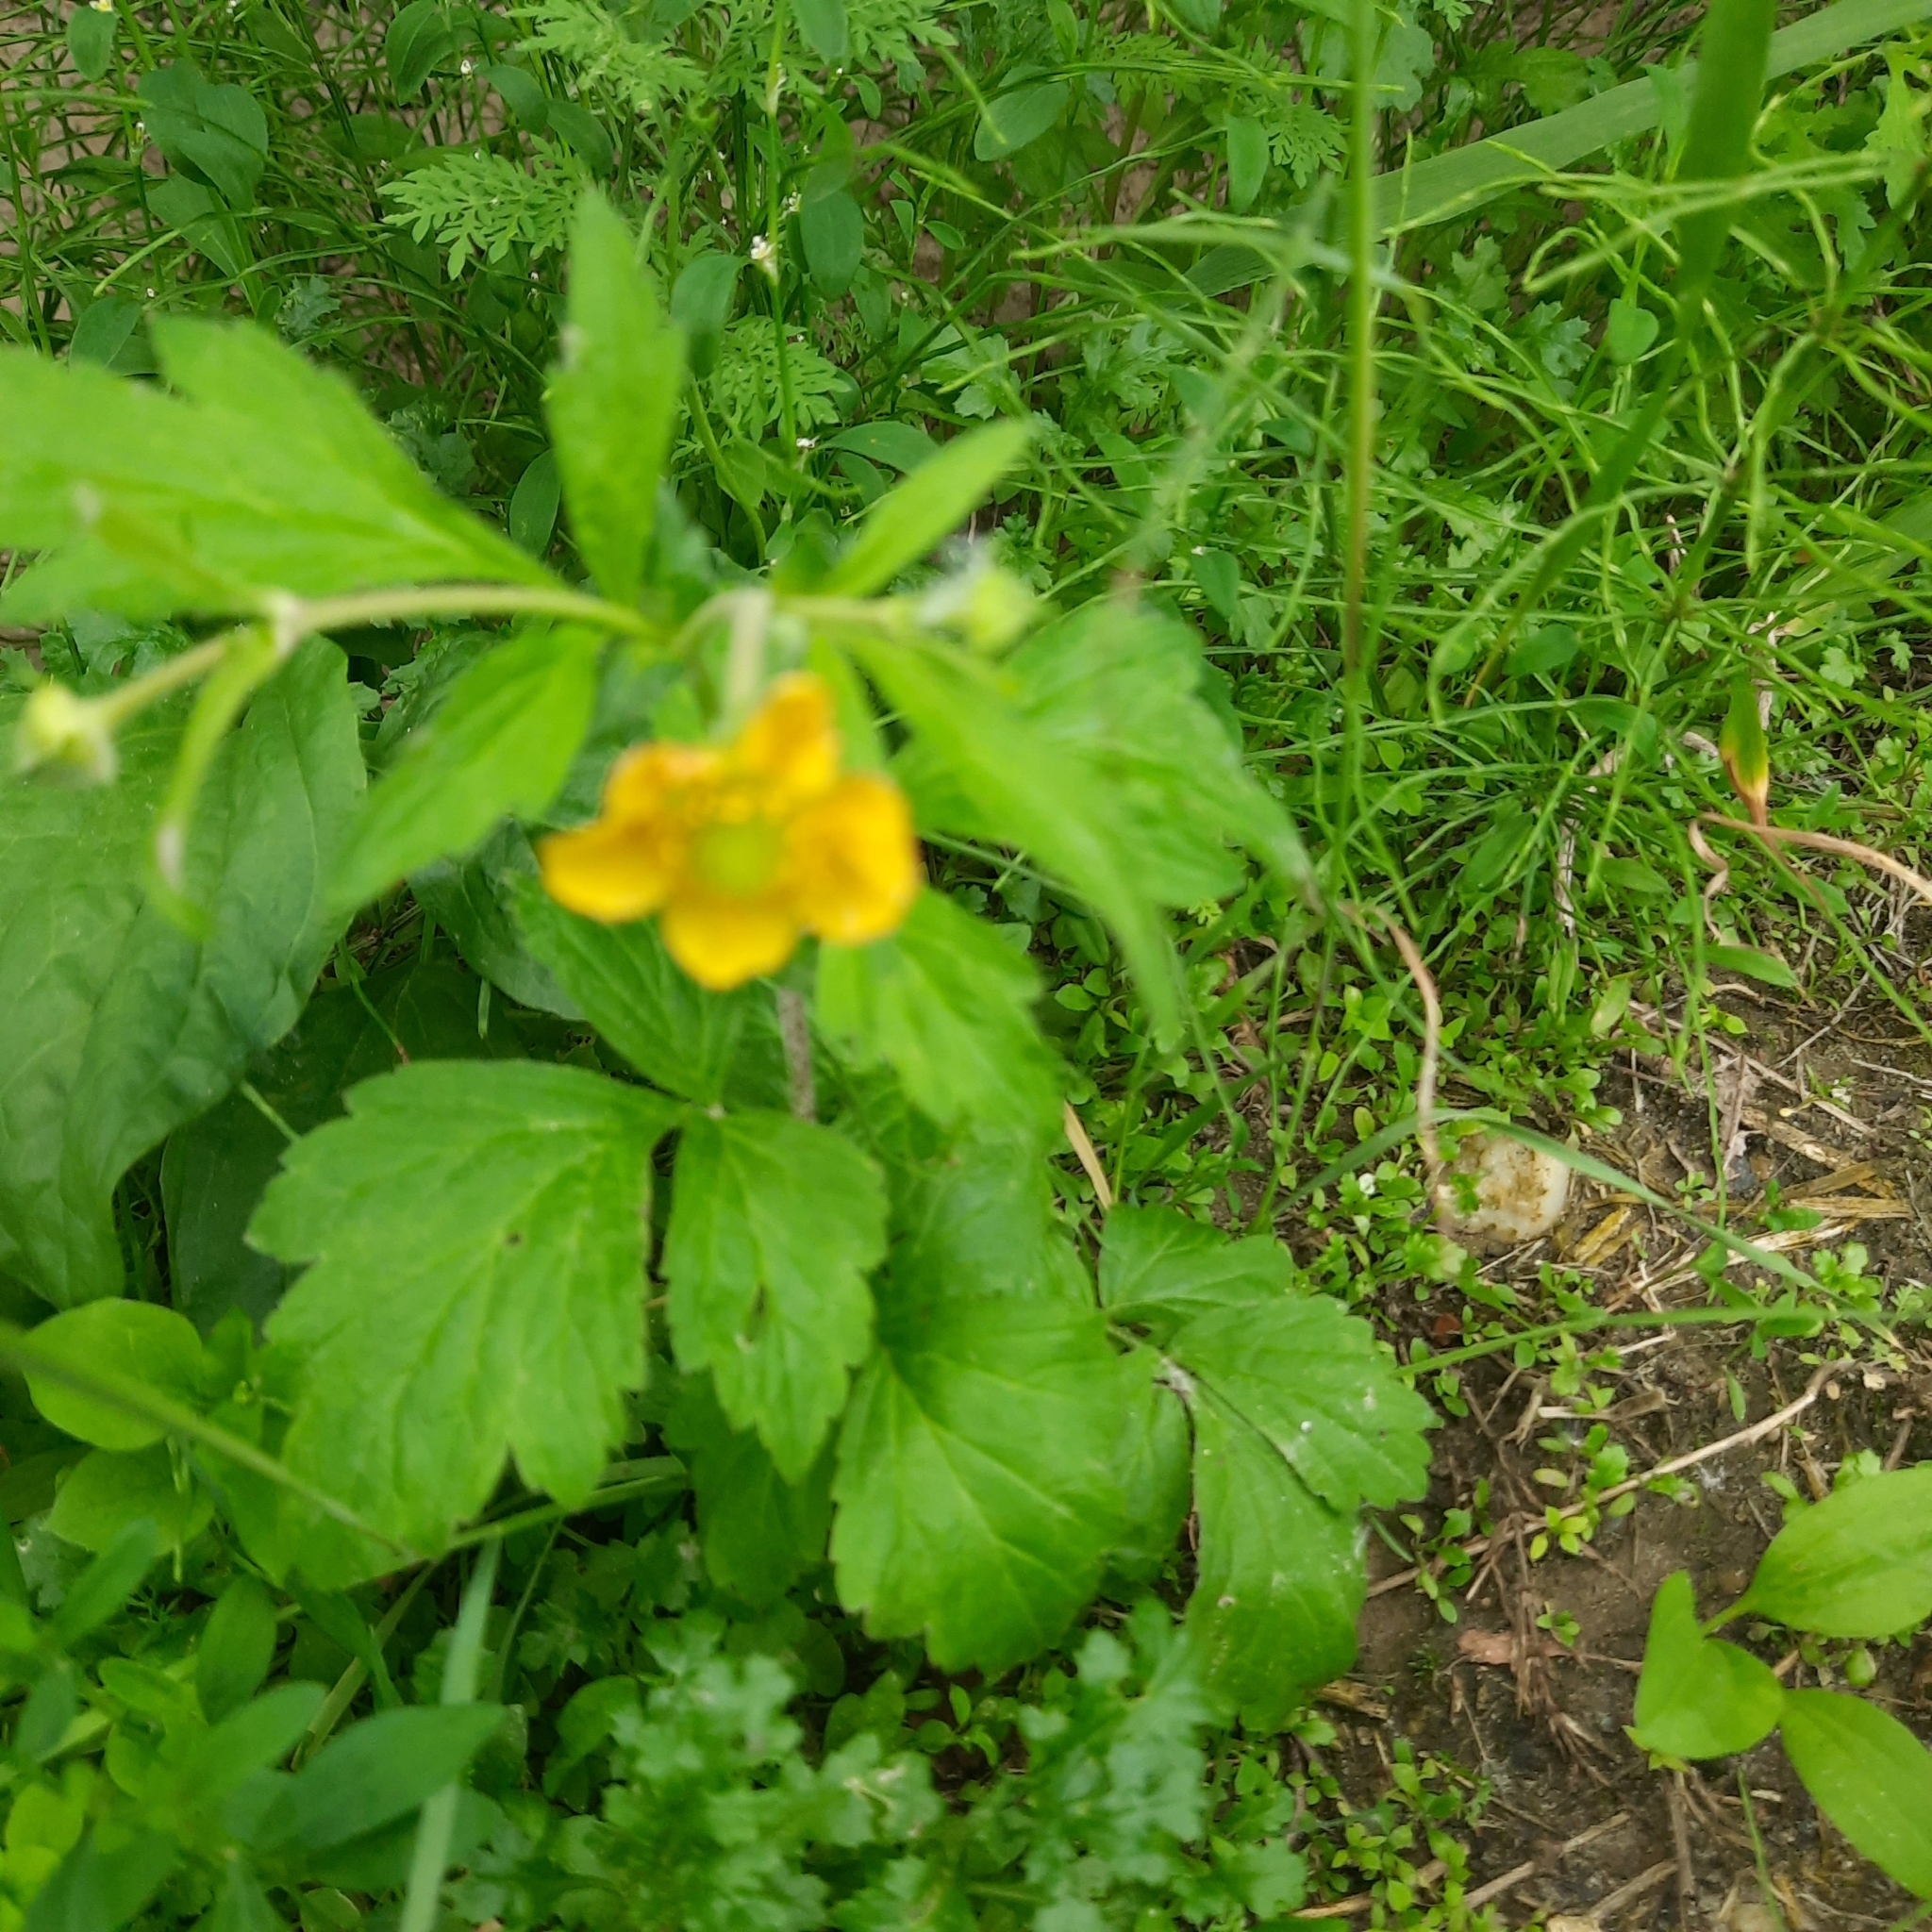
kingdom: Plantae
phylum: Tracheophyta
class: Magnoliopsida
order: Rosales
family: Rosaceae
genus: Geum
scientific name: Geum aleppicum
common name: Yellow avens
